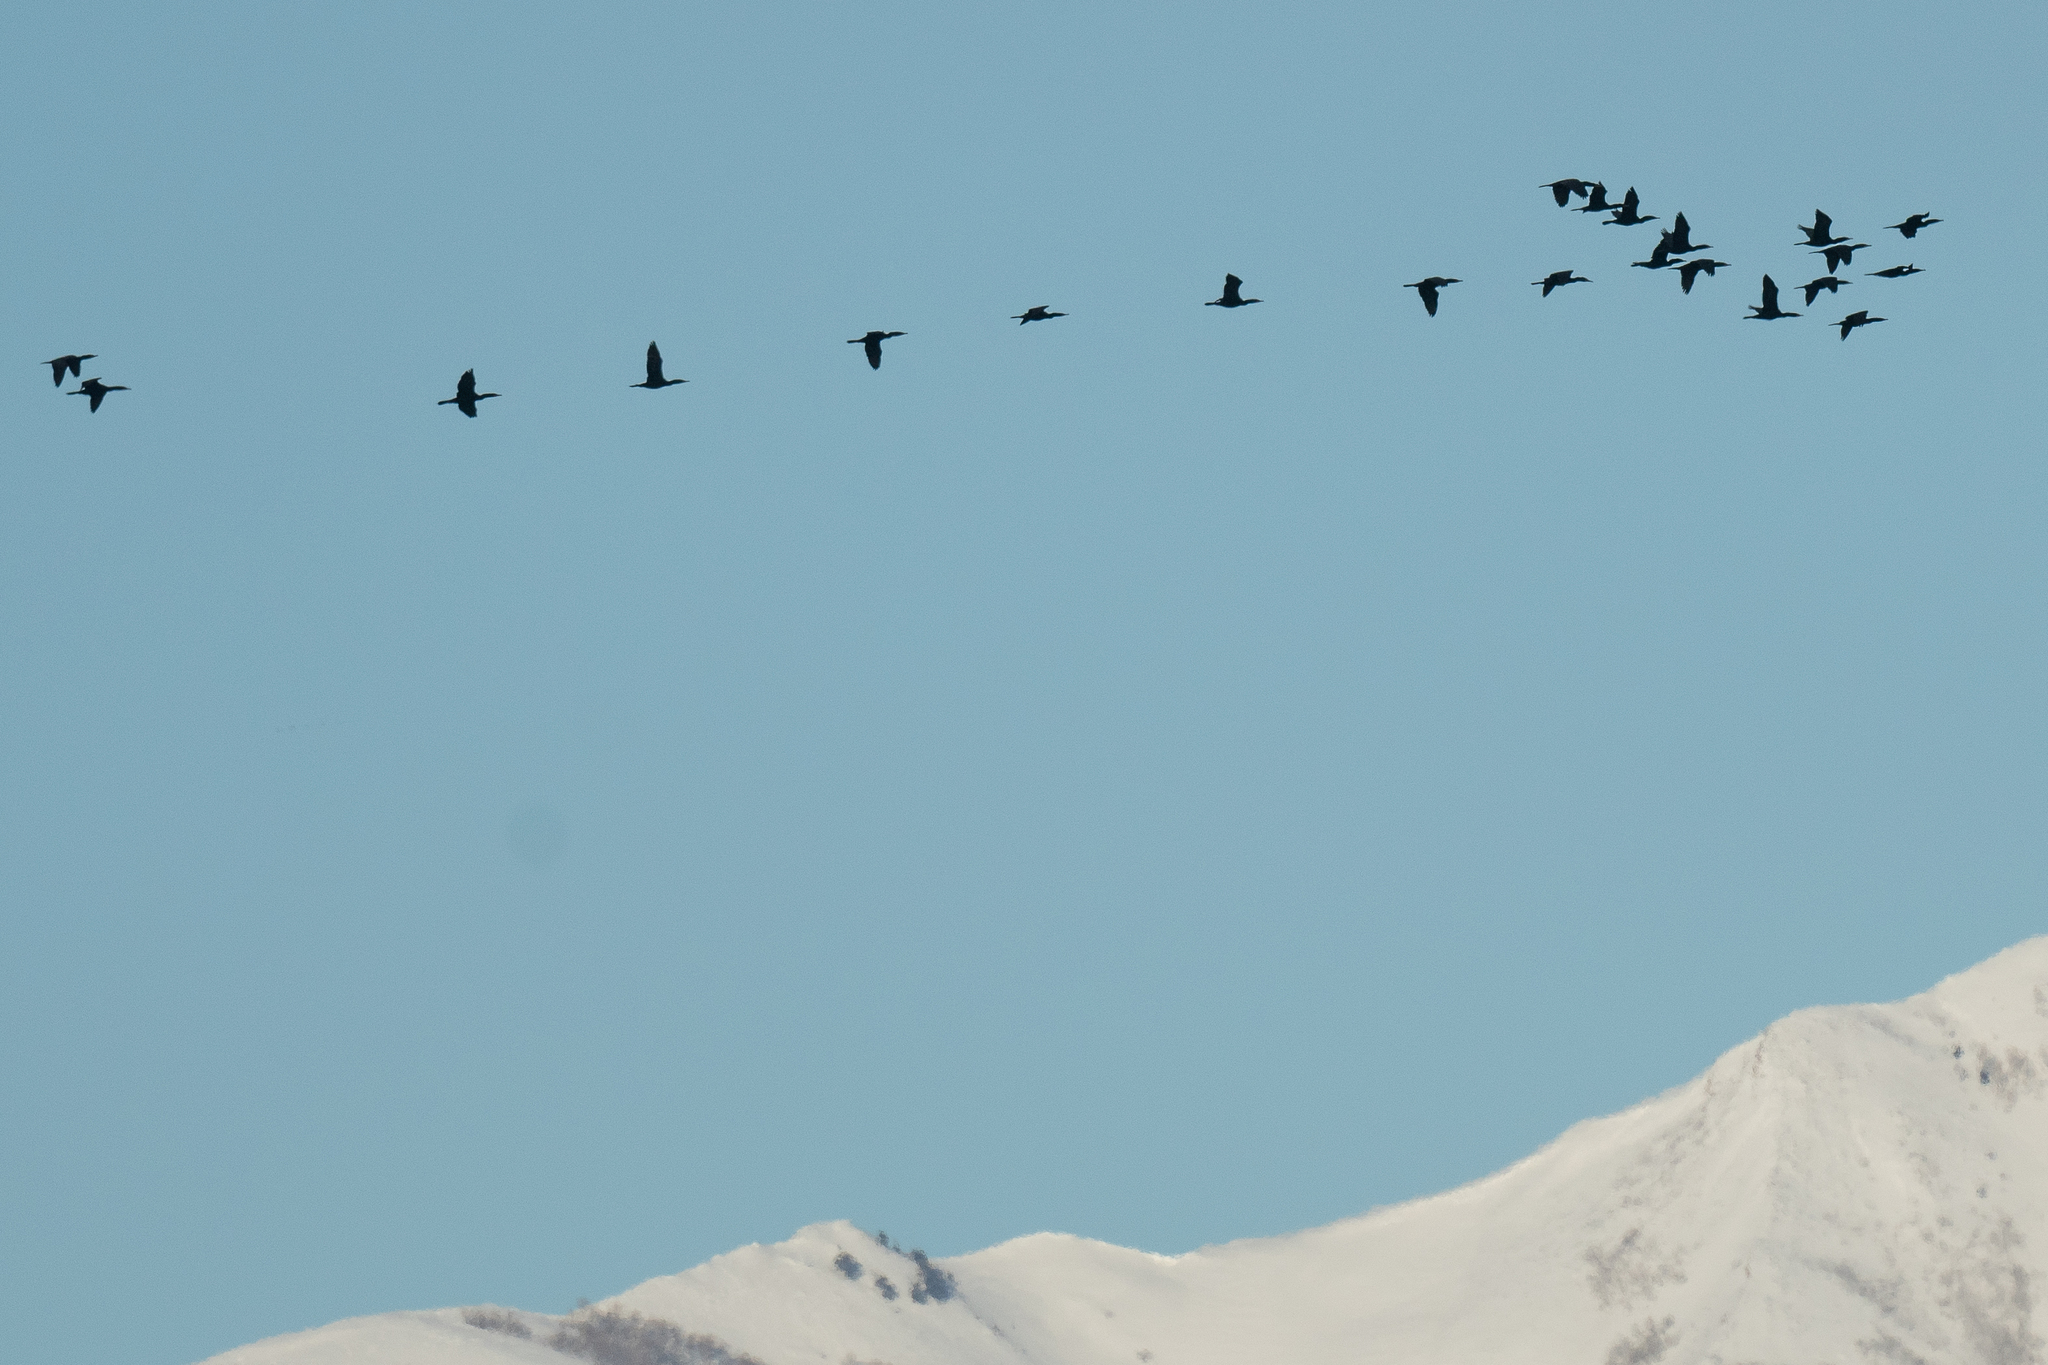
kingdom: Animalia
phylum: Chordata
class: Aves
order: Suliformes
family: Phalacrocoracidae
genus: Phalacrocorax
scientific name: Phalacrocorax auritus
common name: Double-crested cormorant
